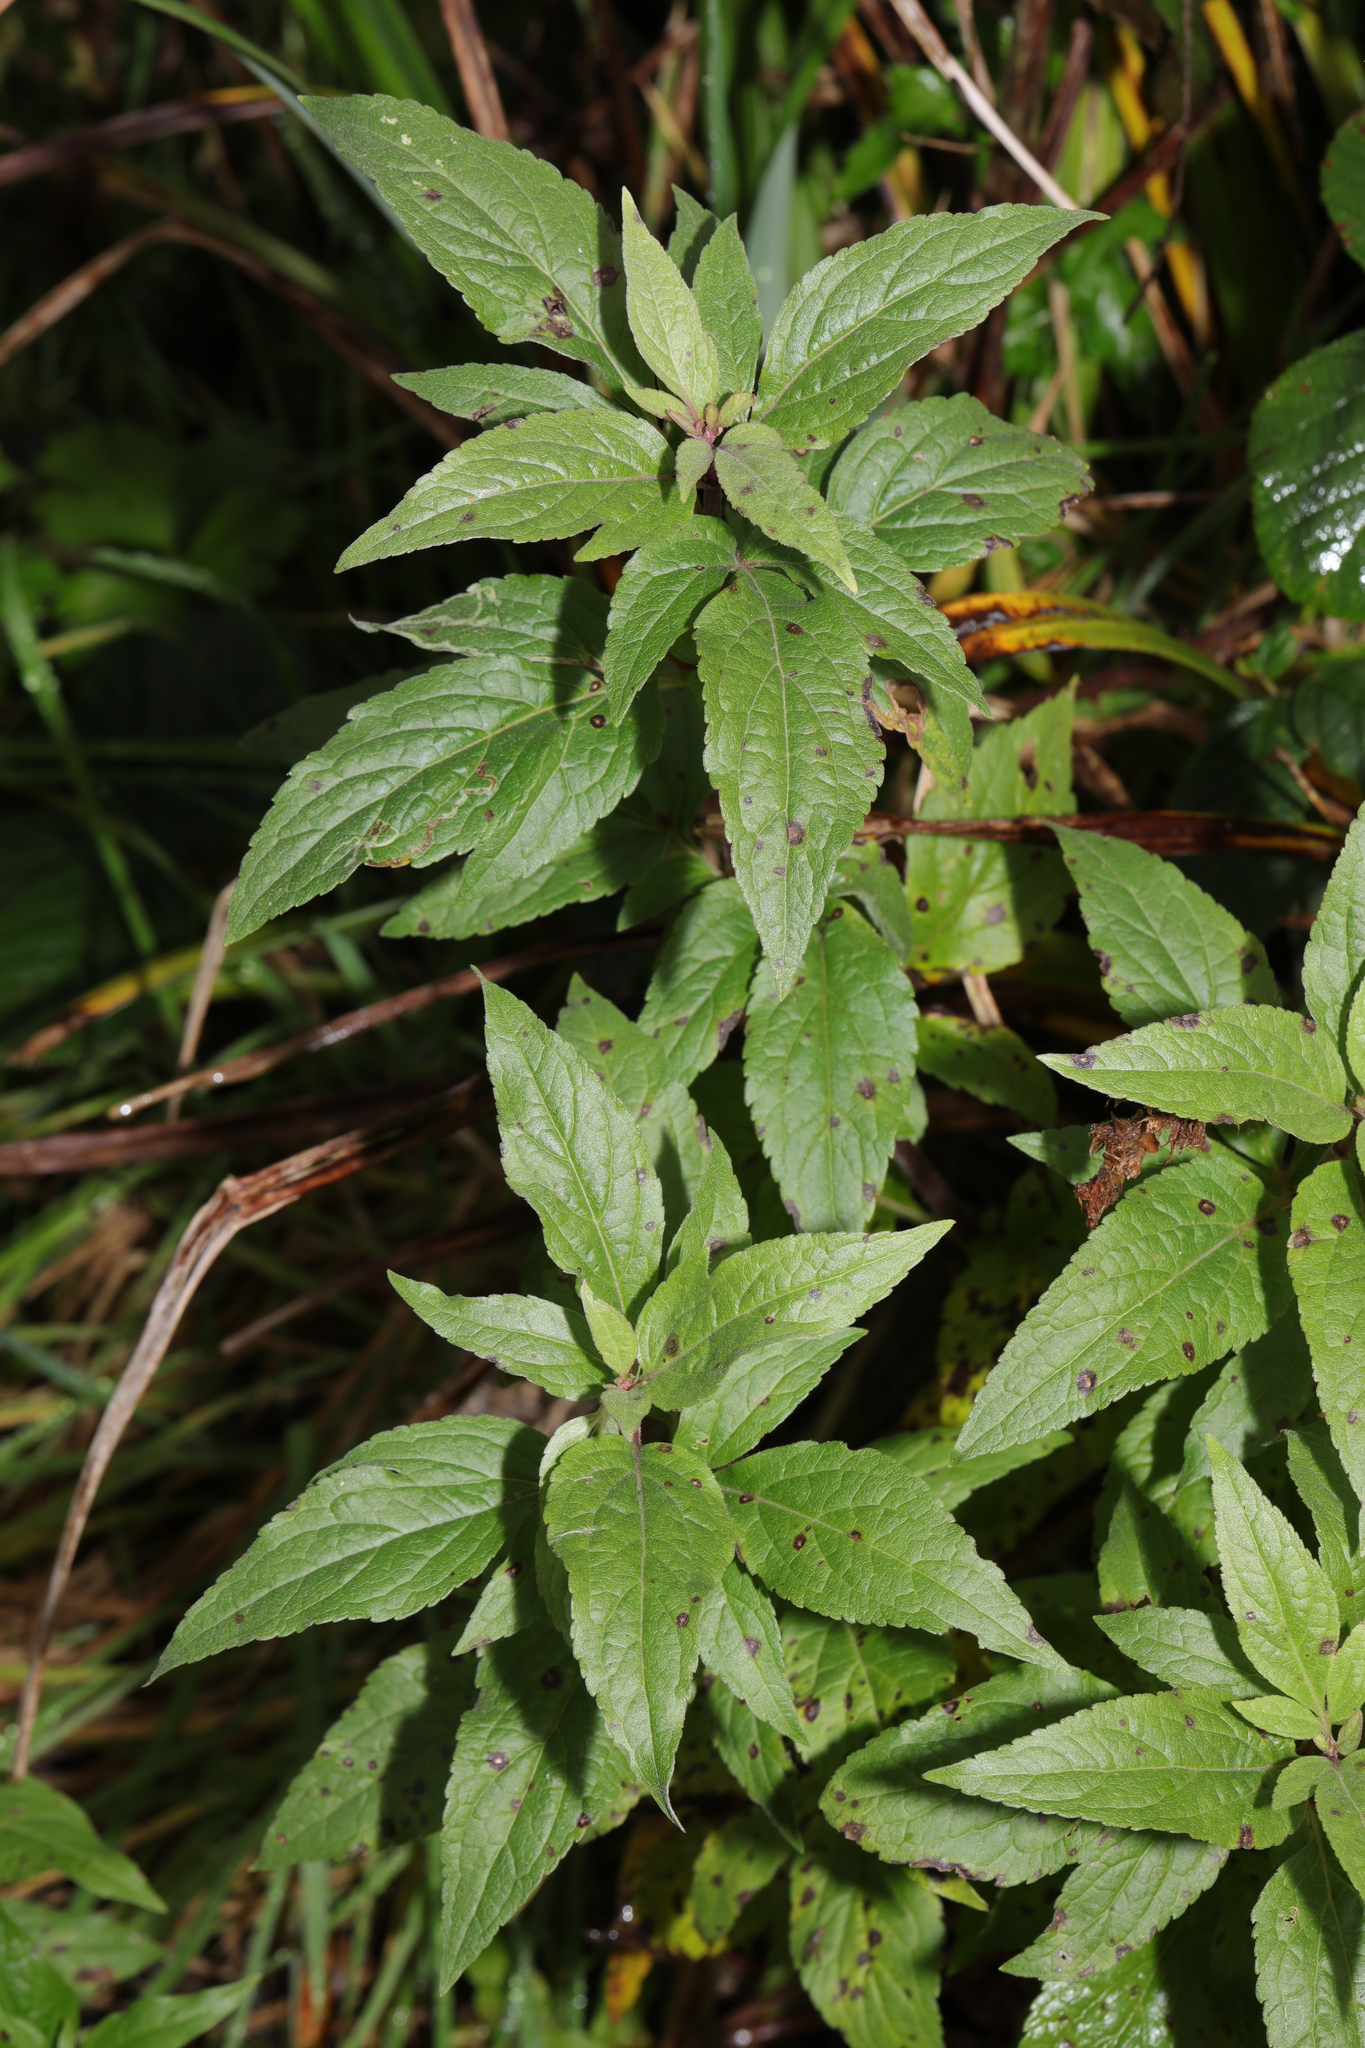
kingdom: Plantae
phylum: Tracheophyta
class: Magnoliopsida
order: Asterales
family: Asteraceae
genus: Eupatorium
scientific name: Eupatorium cannabinum
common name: Hemp-agrimony
